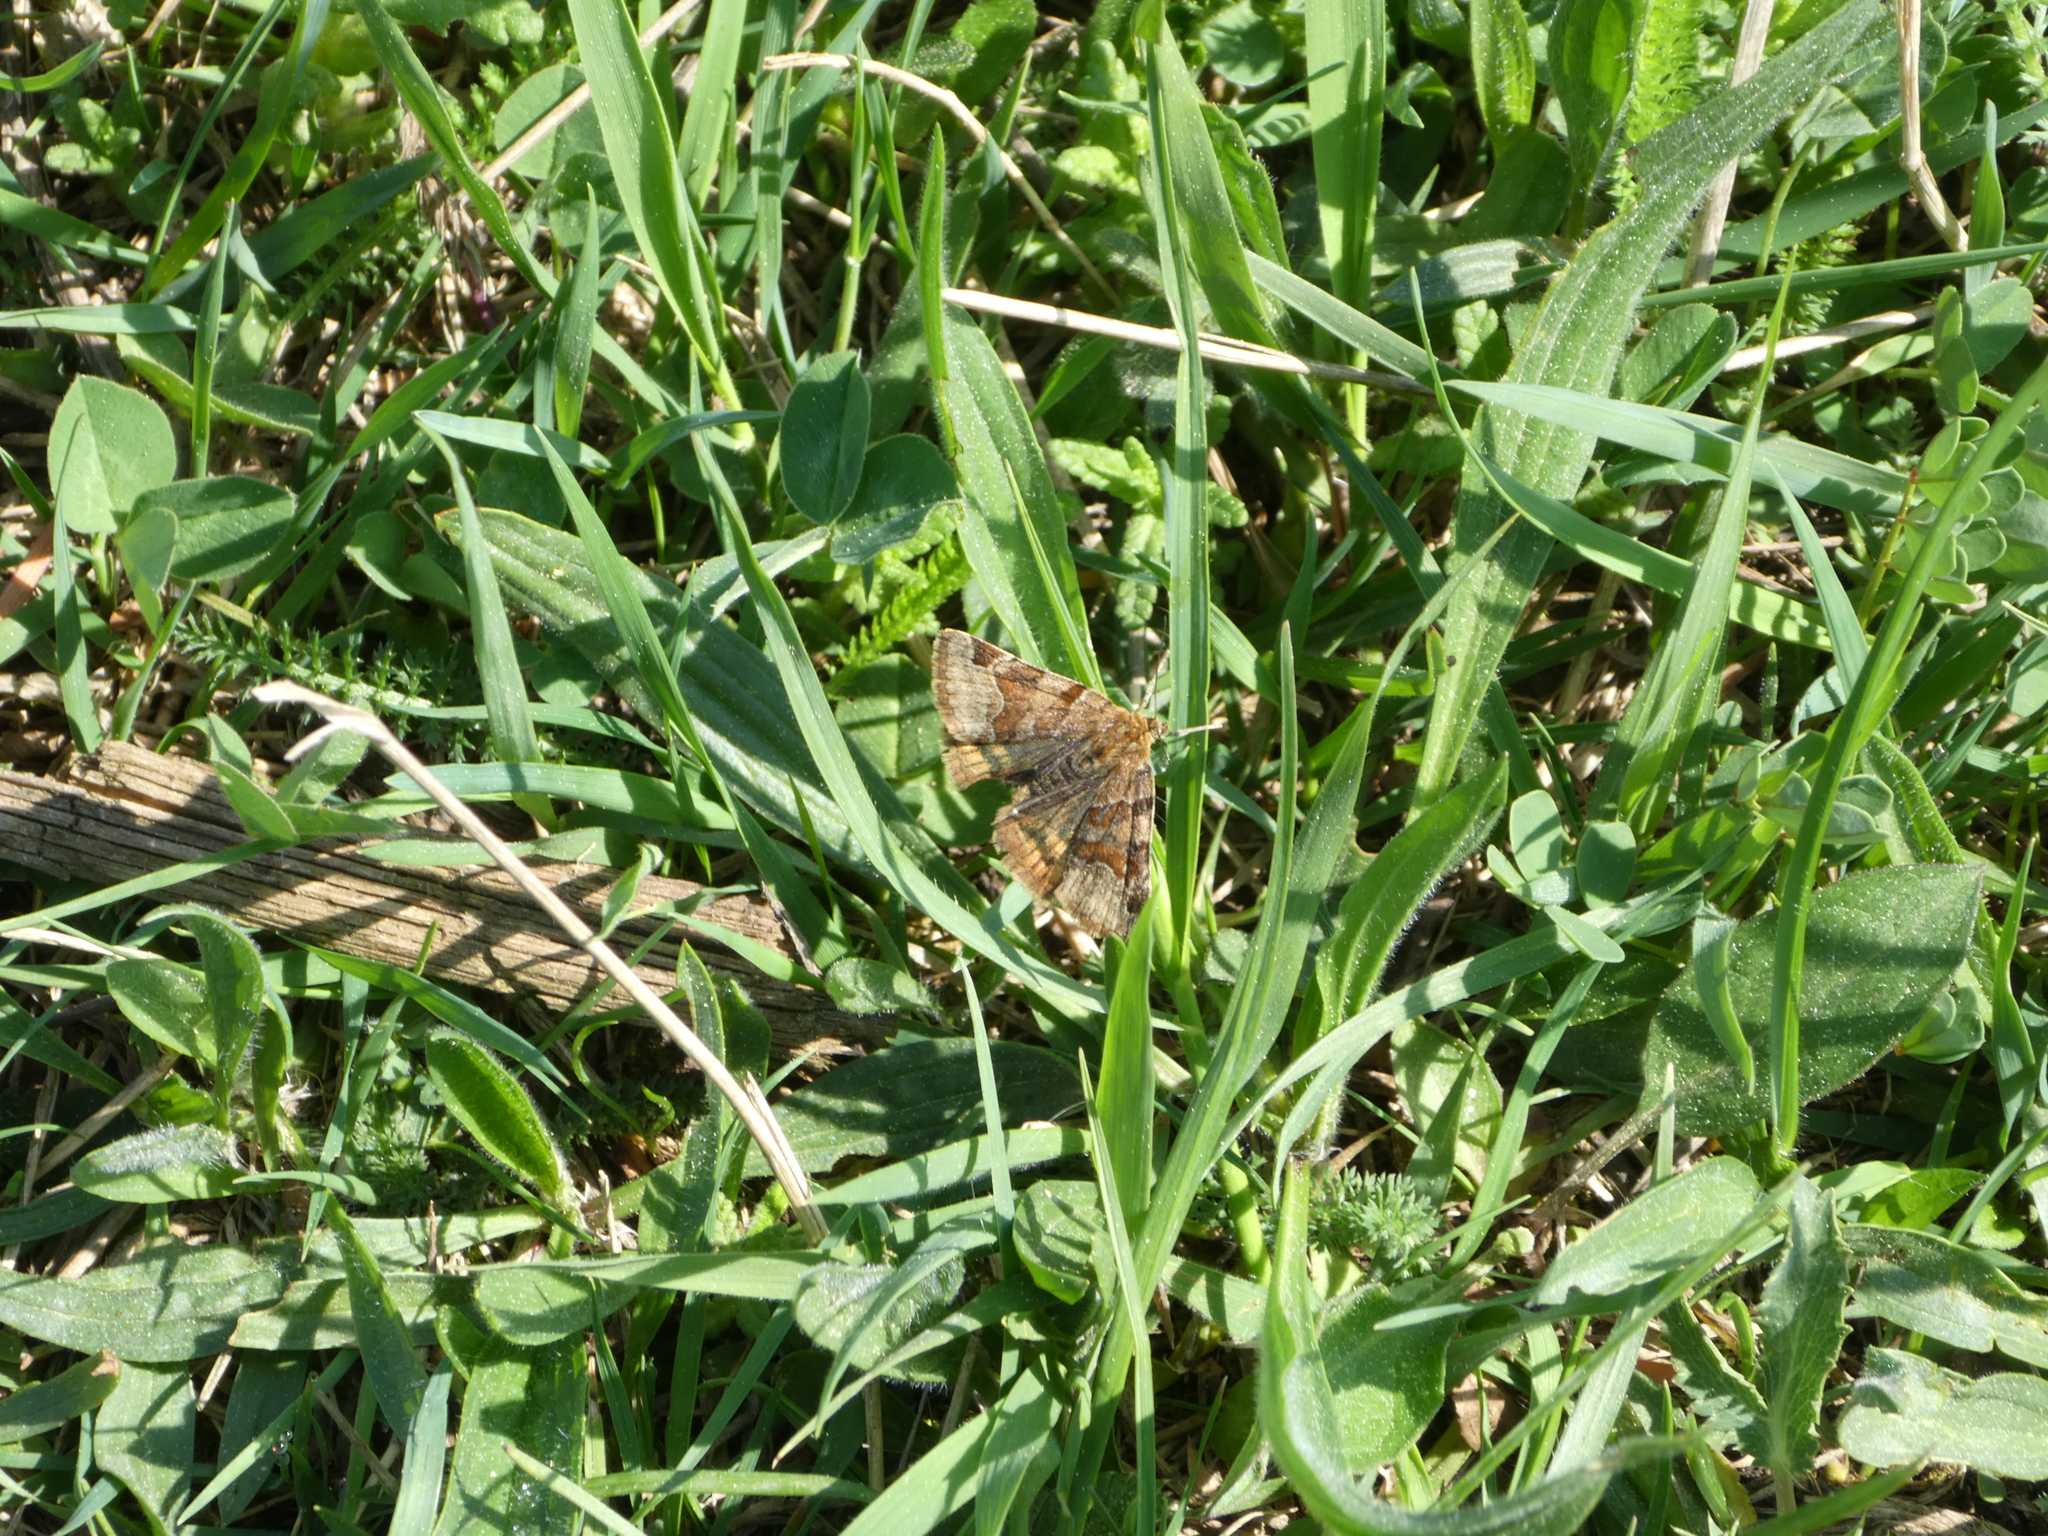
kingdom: Animalia
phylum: Arthropoda
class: Insecta
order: Lepidoptera
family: Erebidae
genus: Euclidia
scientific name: Euclidia glyphica
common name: Burnet companion
